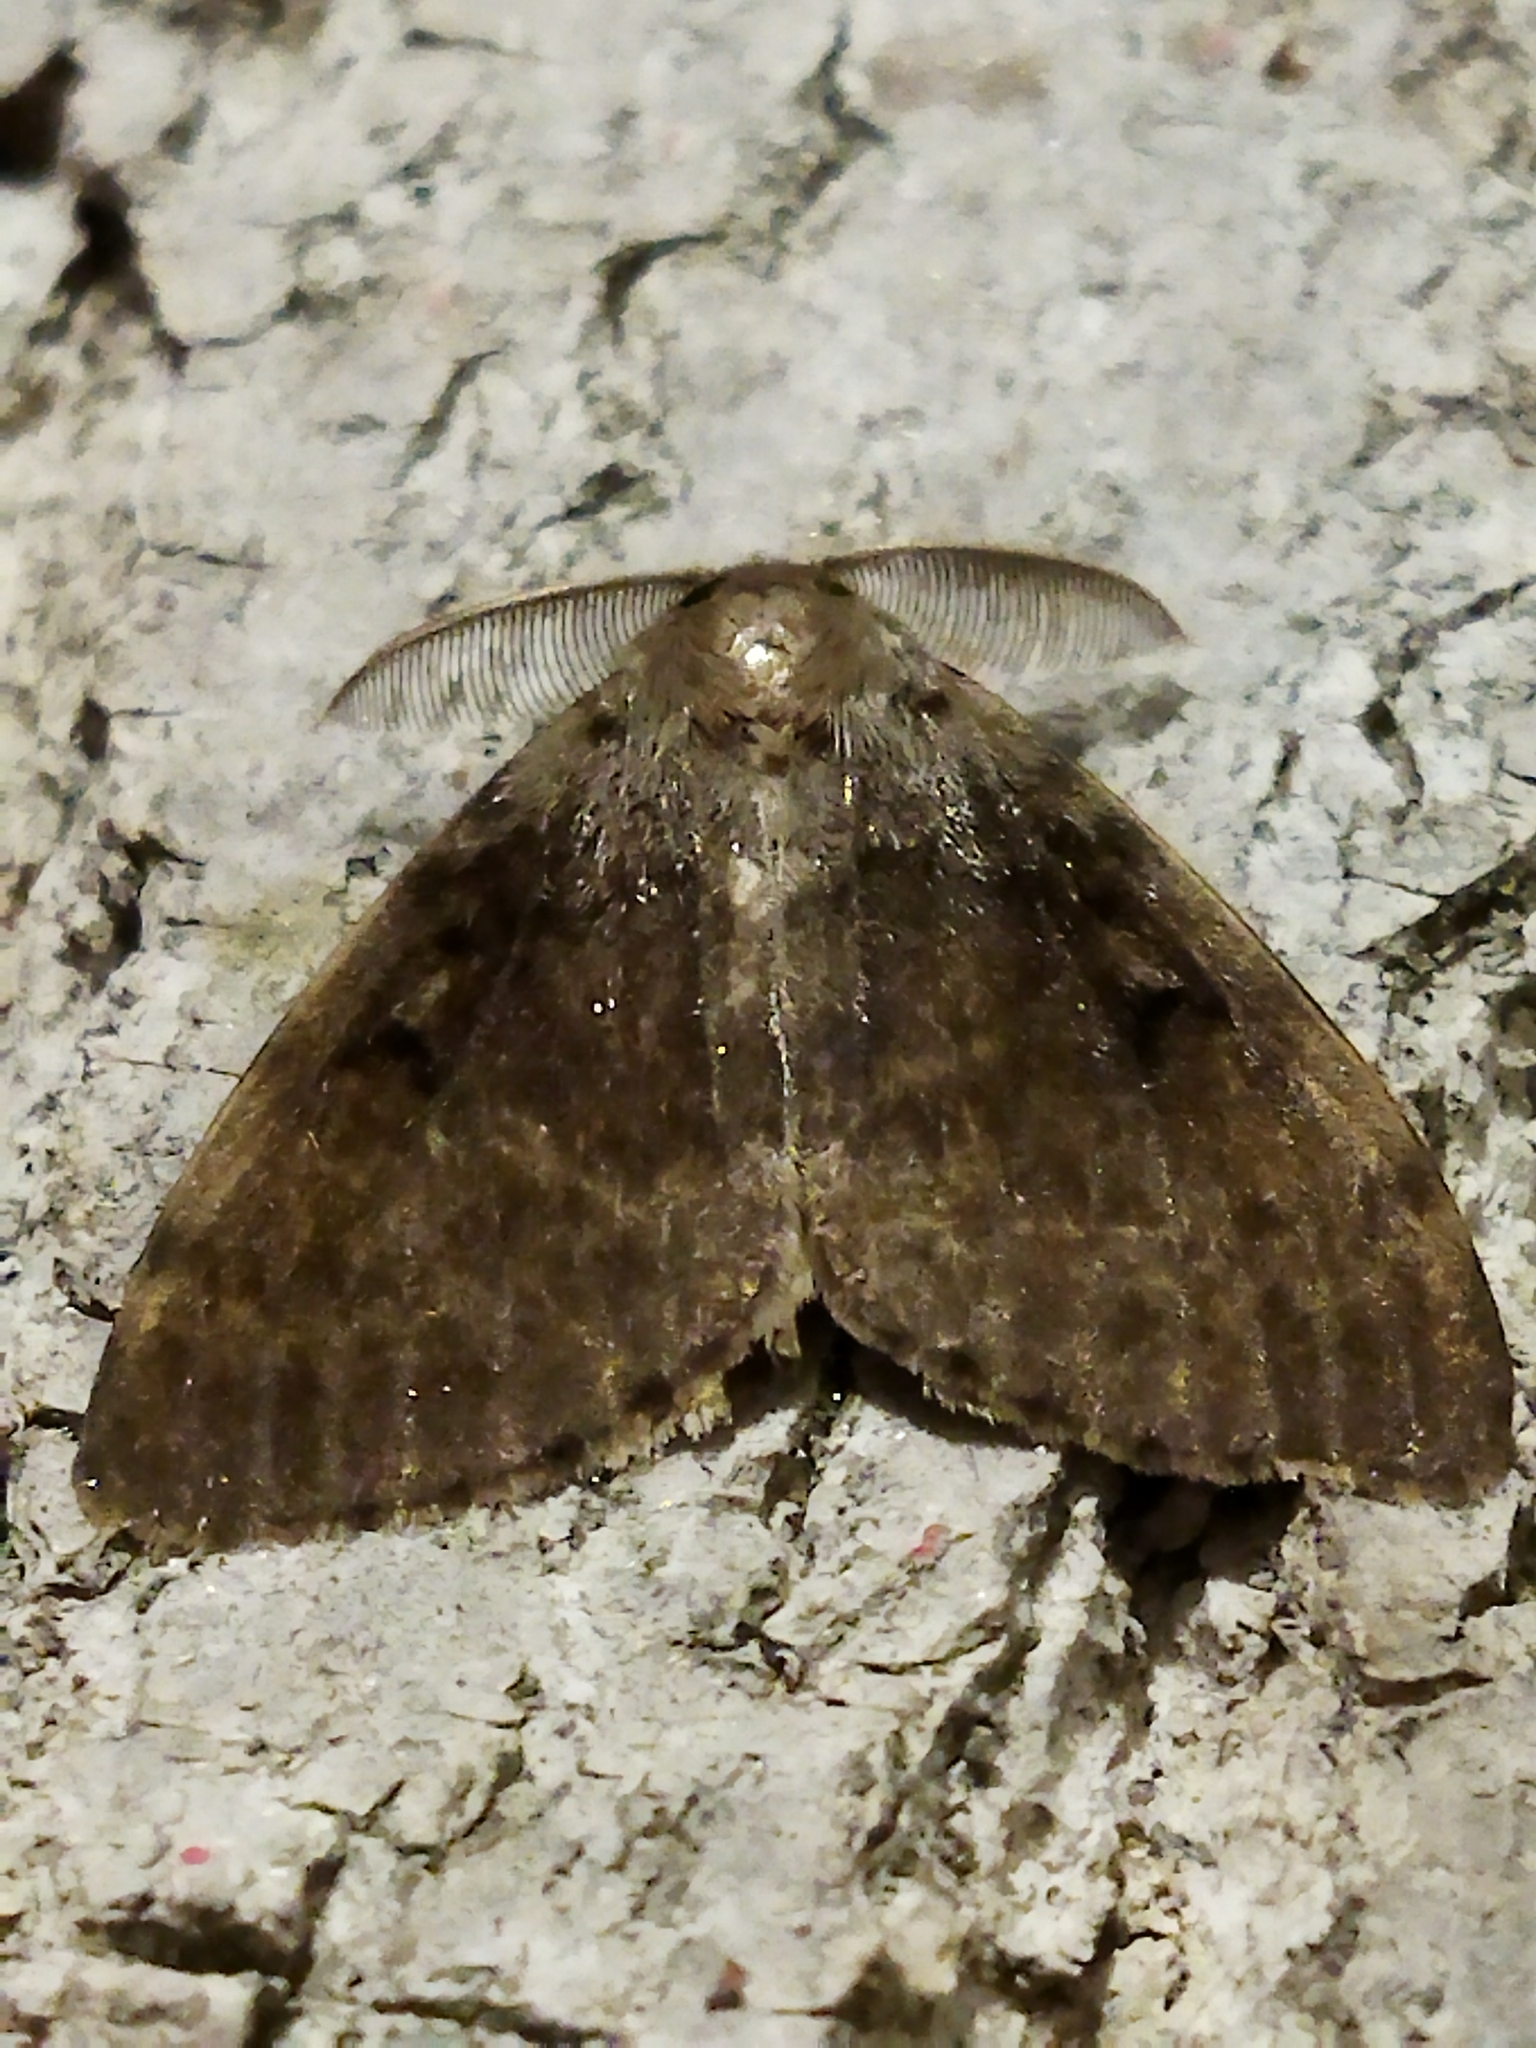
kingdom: Animalia
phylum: Arthropoda
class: Insecta
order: Lepidoptera
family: Erebidae
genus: Lymantria
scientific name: Lymantria dispar
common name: Gypsy moth
